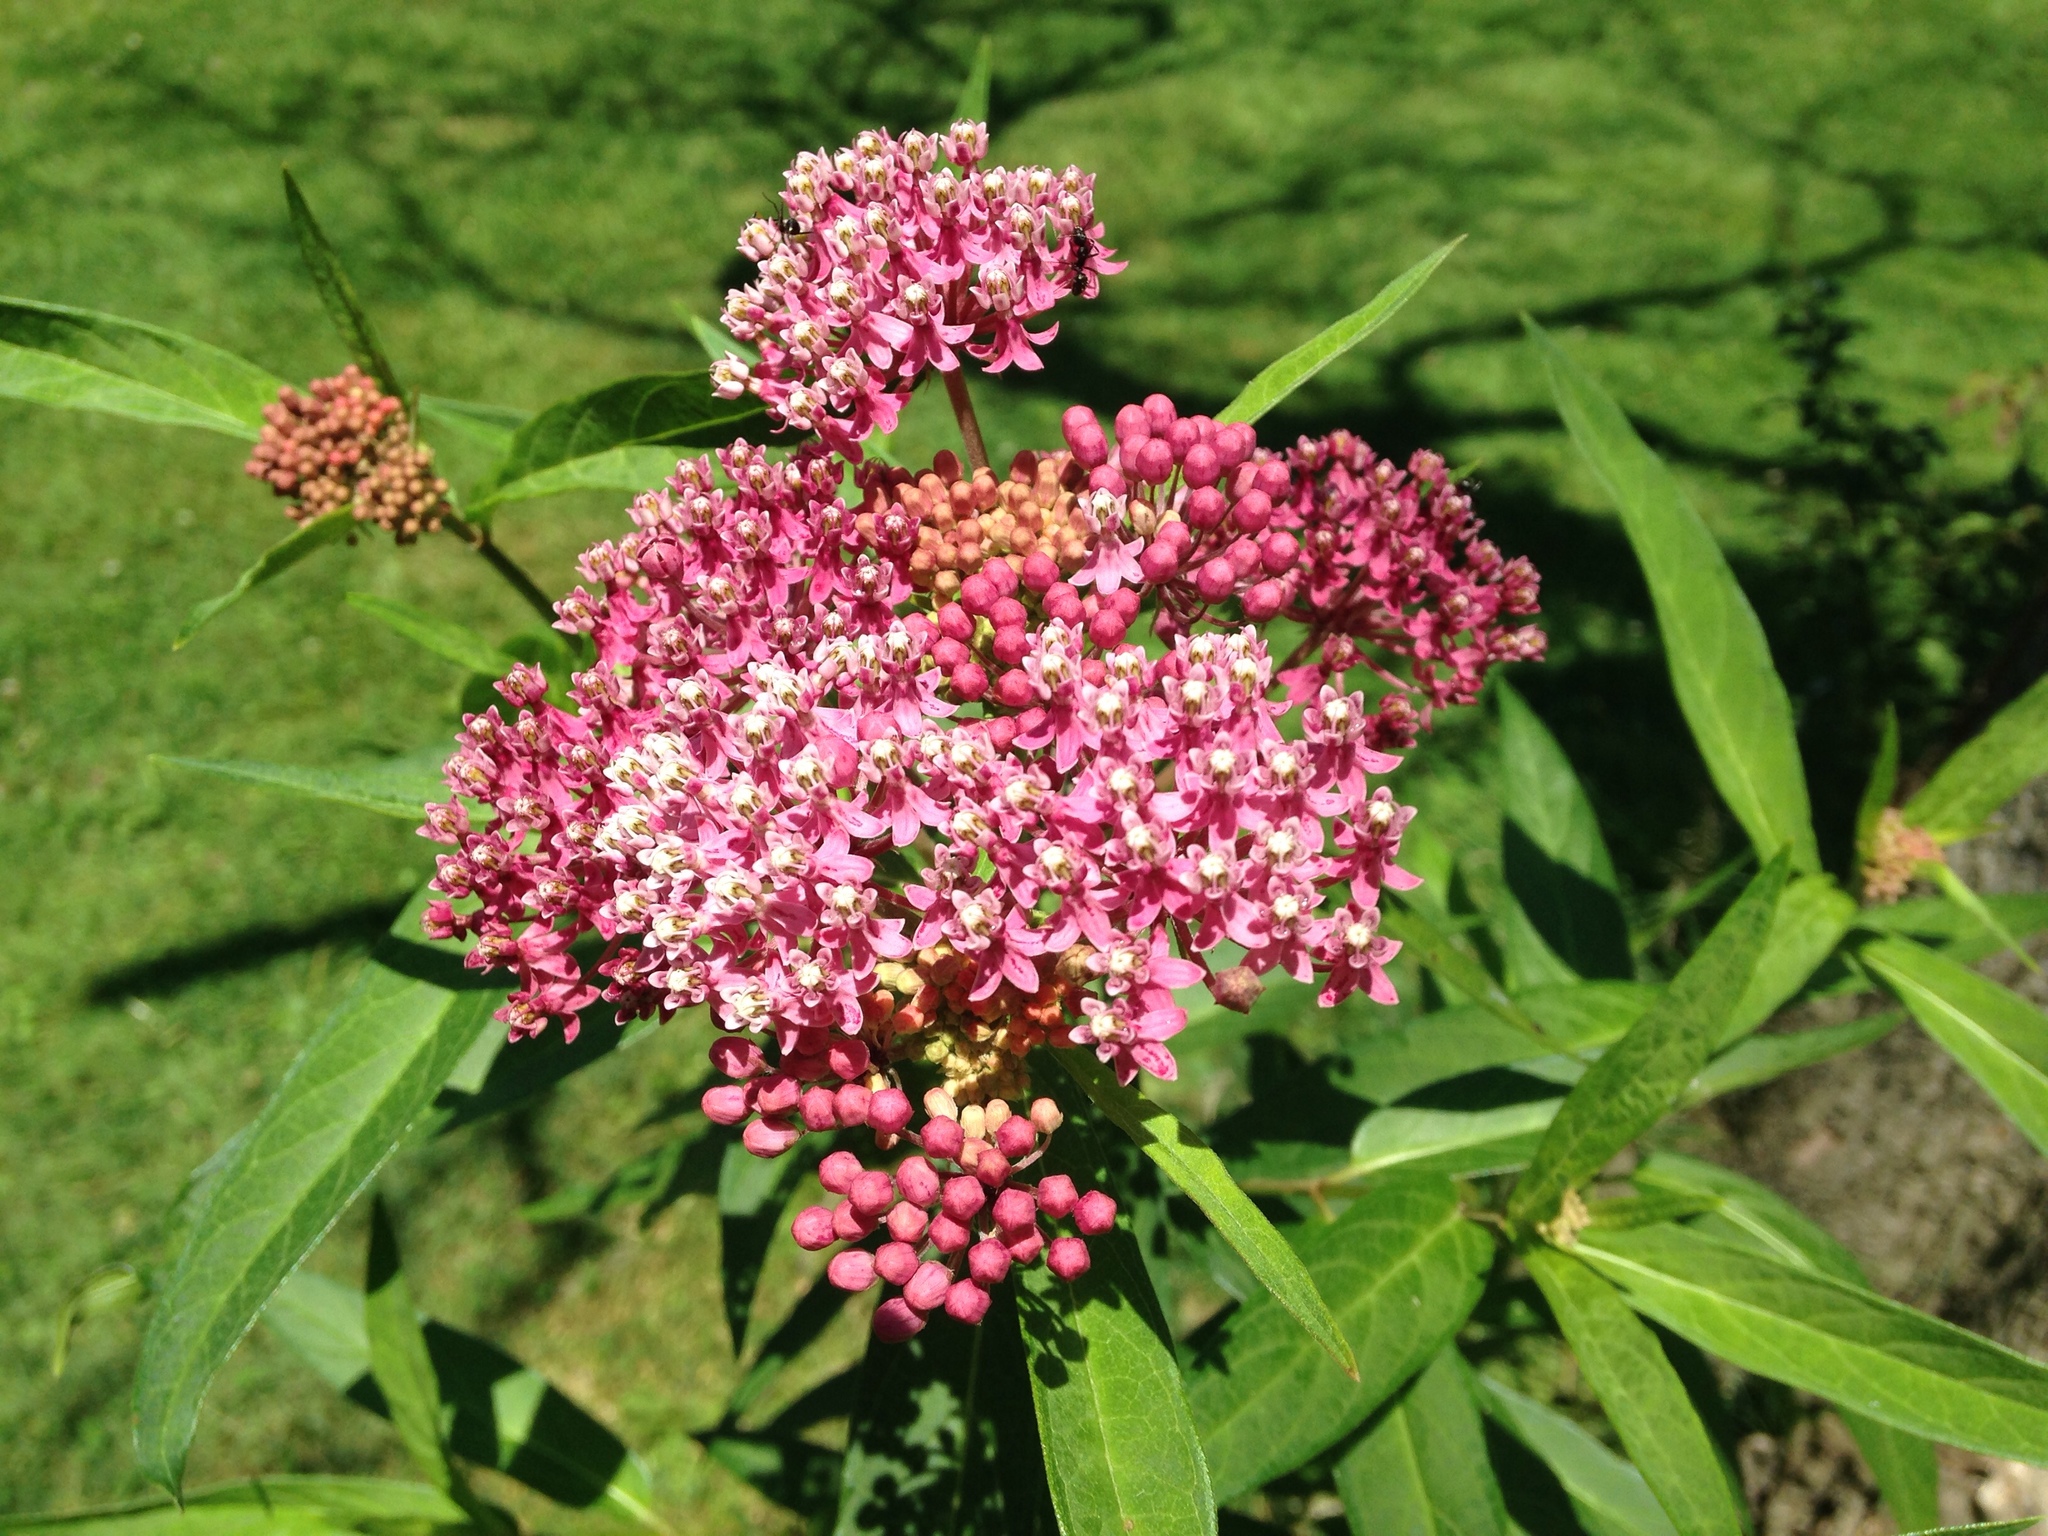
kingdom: Plantae
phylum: Tracheophyta
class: Magnoliopsida
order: Gentianales
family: Apocynaceae
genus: Asclepias
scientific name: Asclepias incarnata
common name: Swamp milkweed
